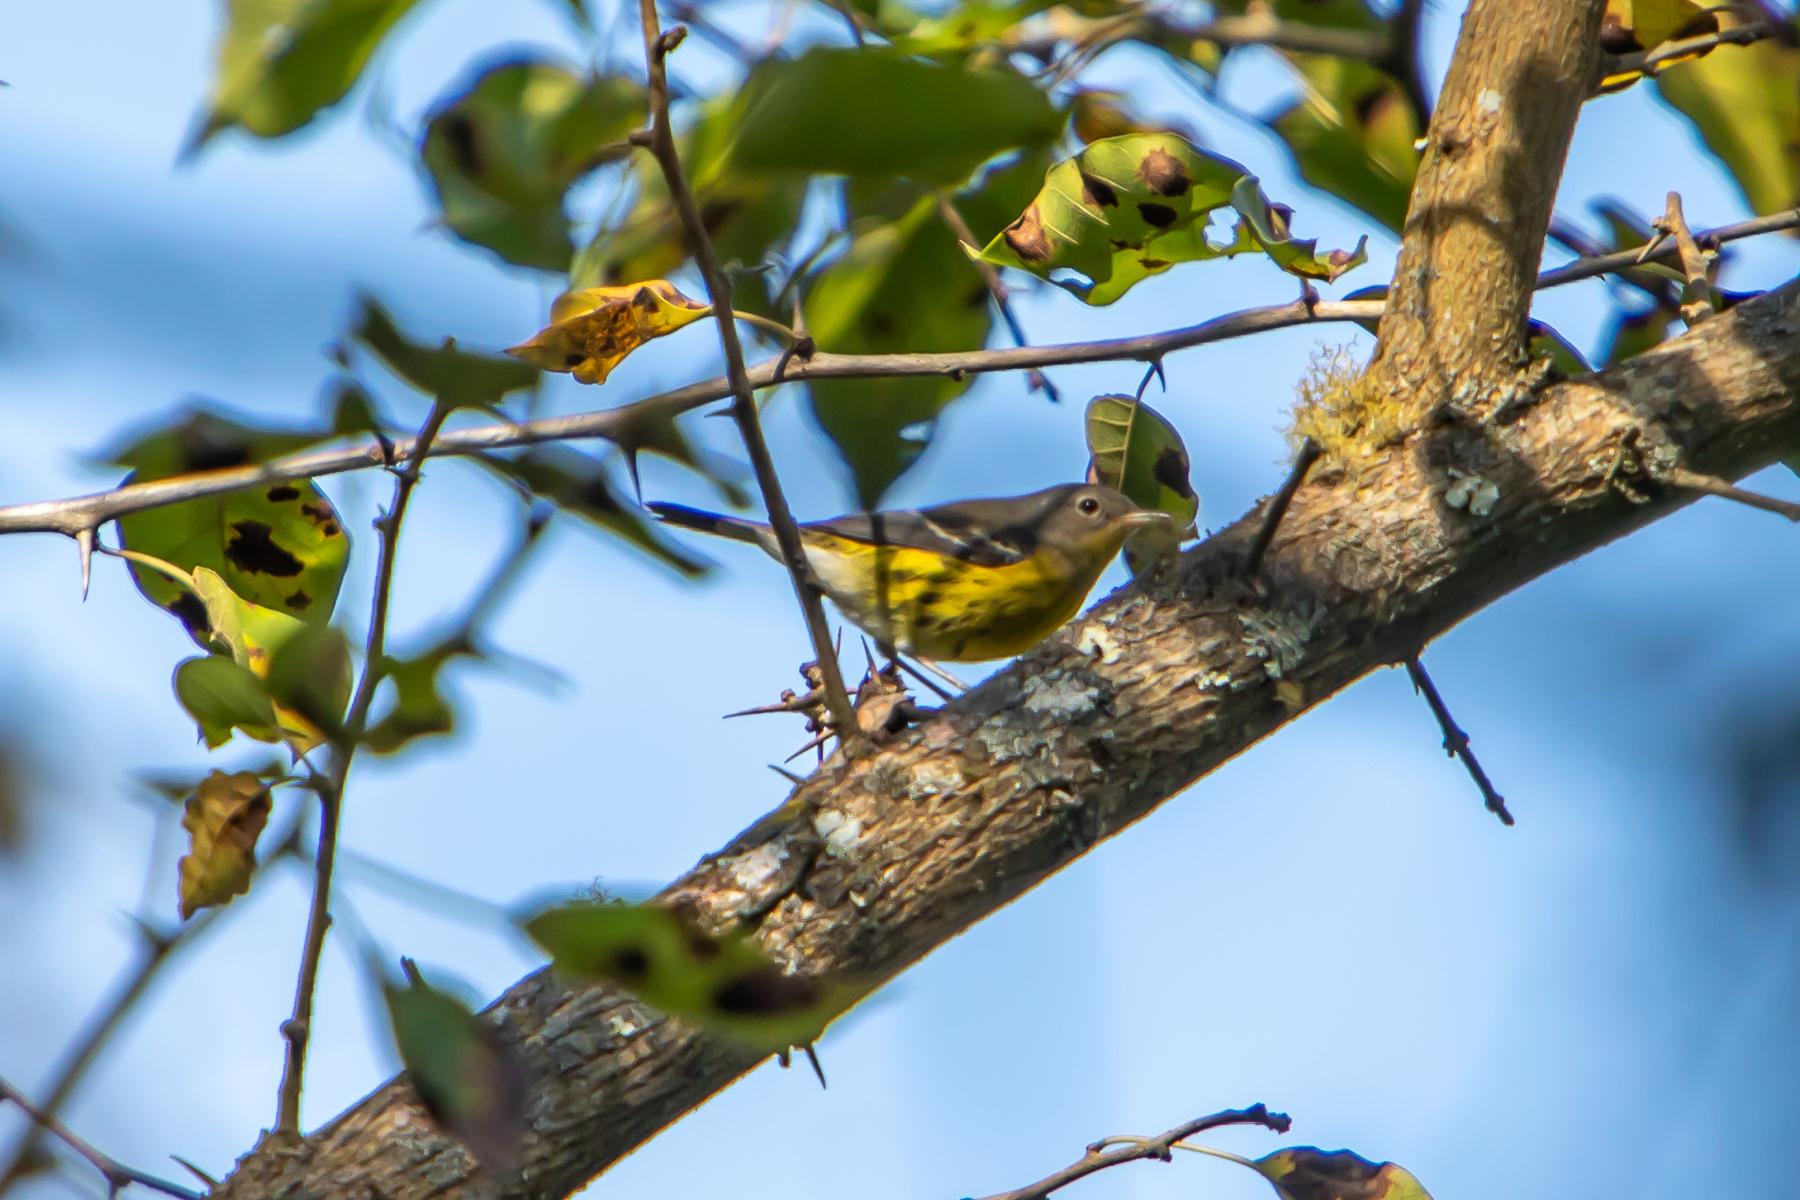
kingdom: Animalia
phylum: Chordata
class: Aves
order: Passeriformes
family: Parulidae
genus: Setophaga
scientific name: Setophaga magnolia
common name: Magnolia warbler
